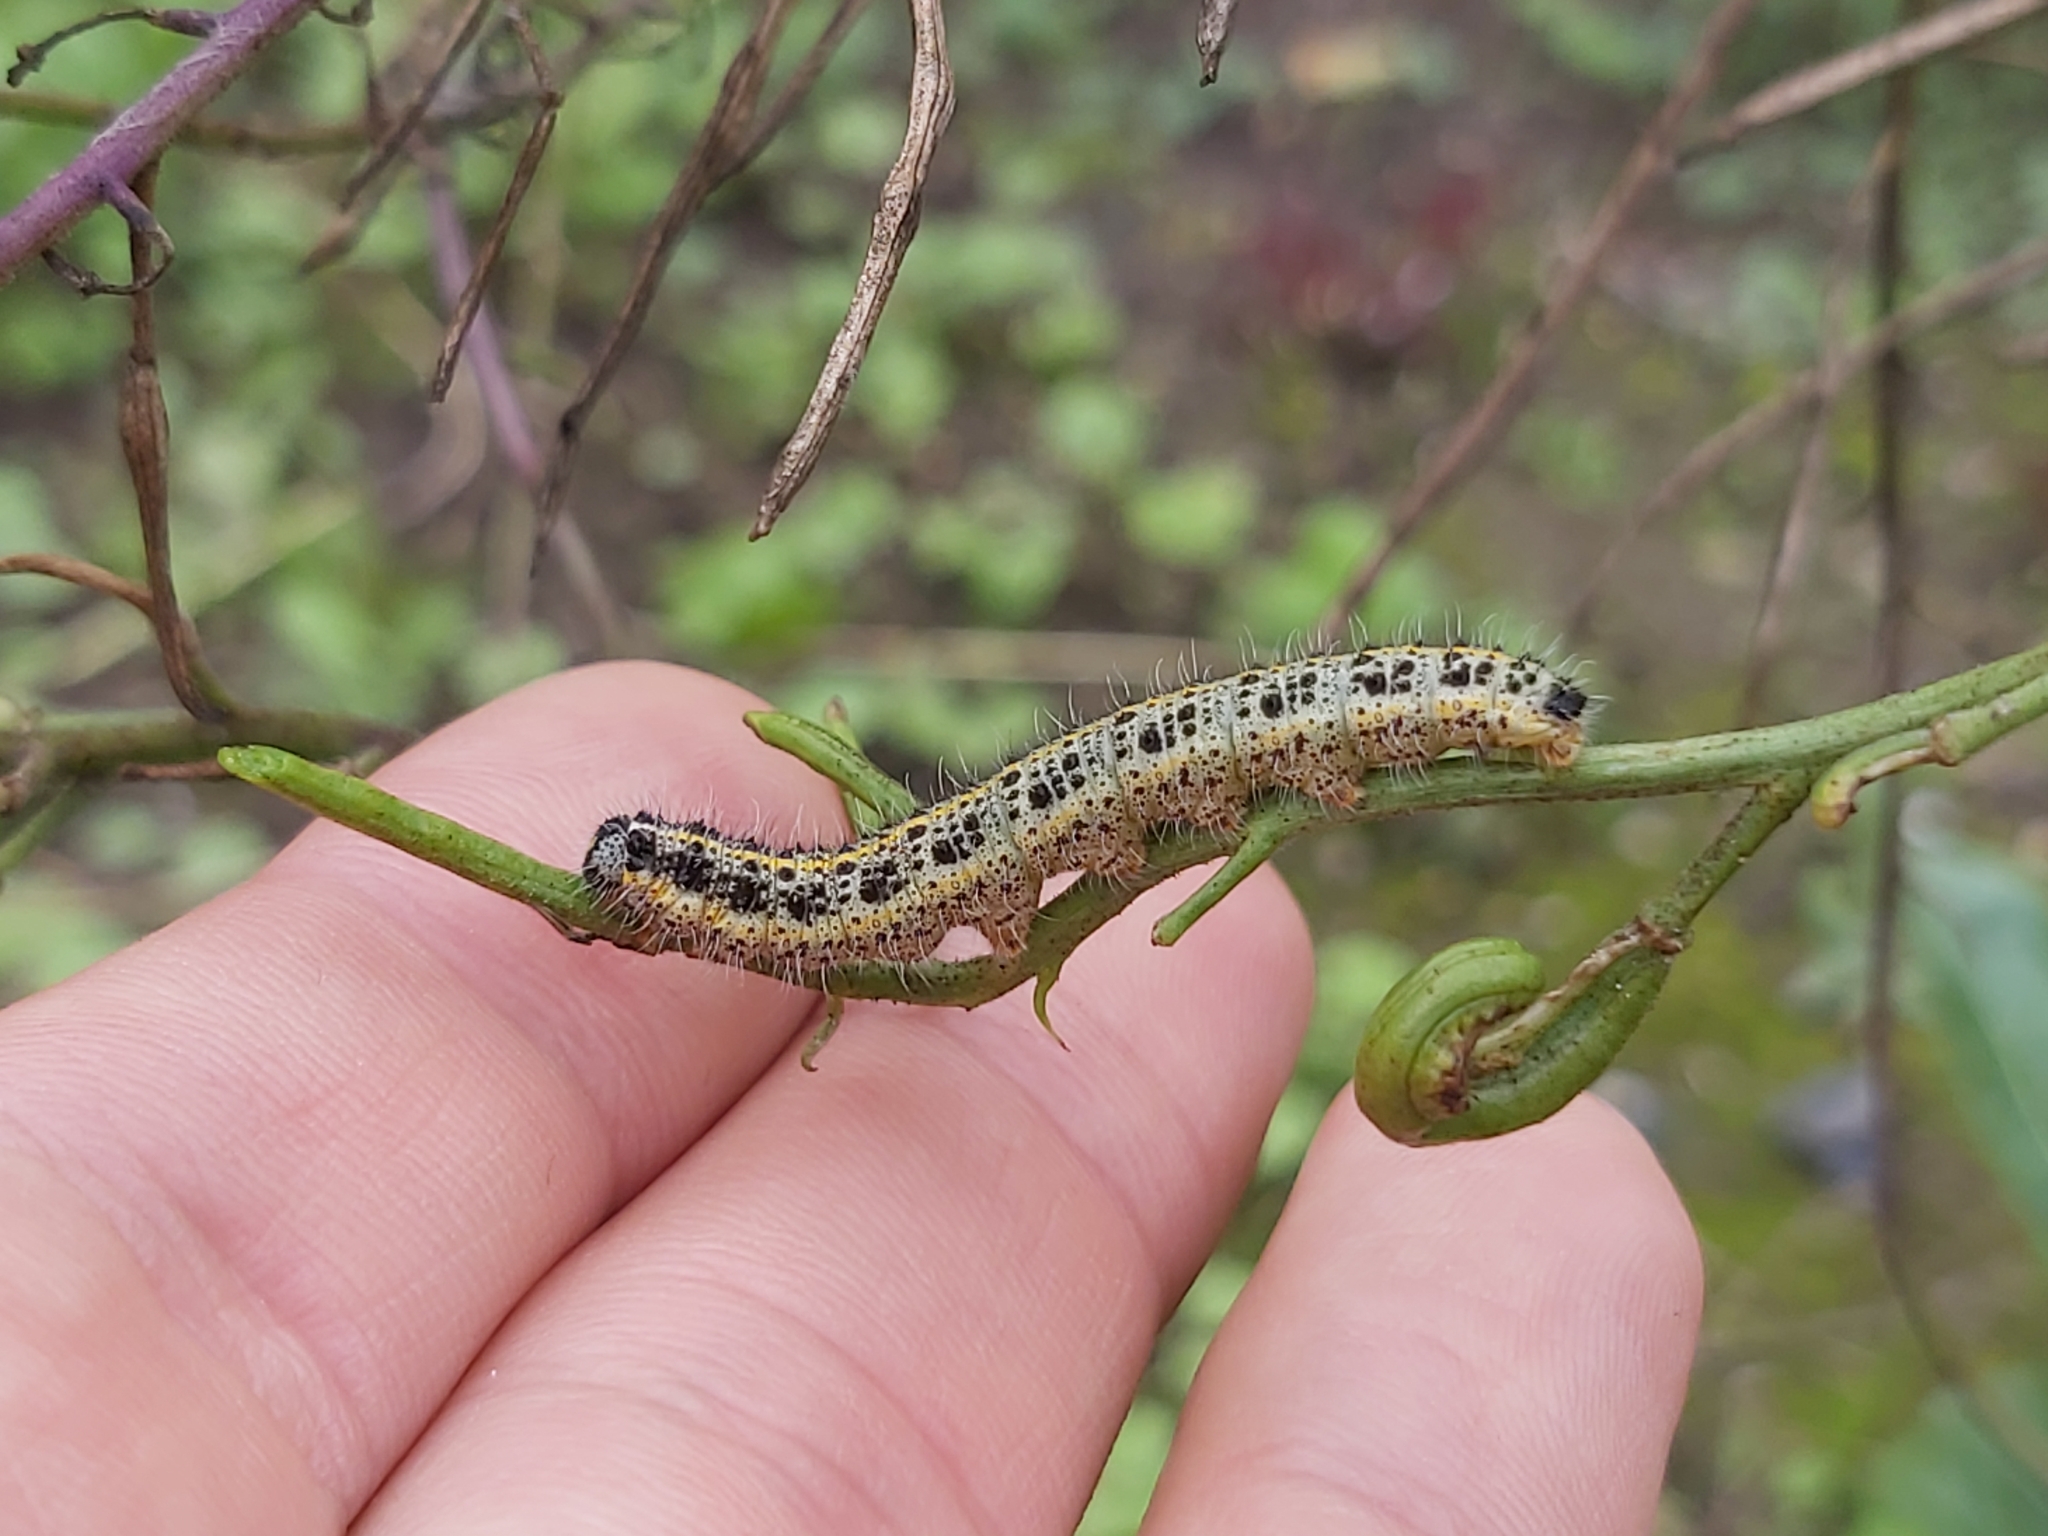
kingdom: Animalia
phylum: Arthropoda
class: Insecta
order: Lepidoptera
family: Pieridae
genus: Pieris
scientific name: Pieris brassicae
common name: Large white
